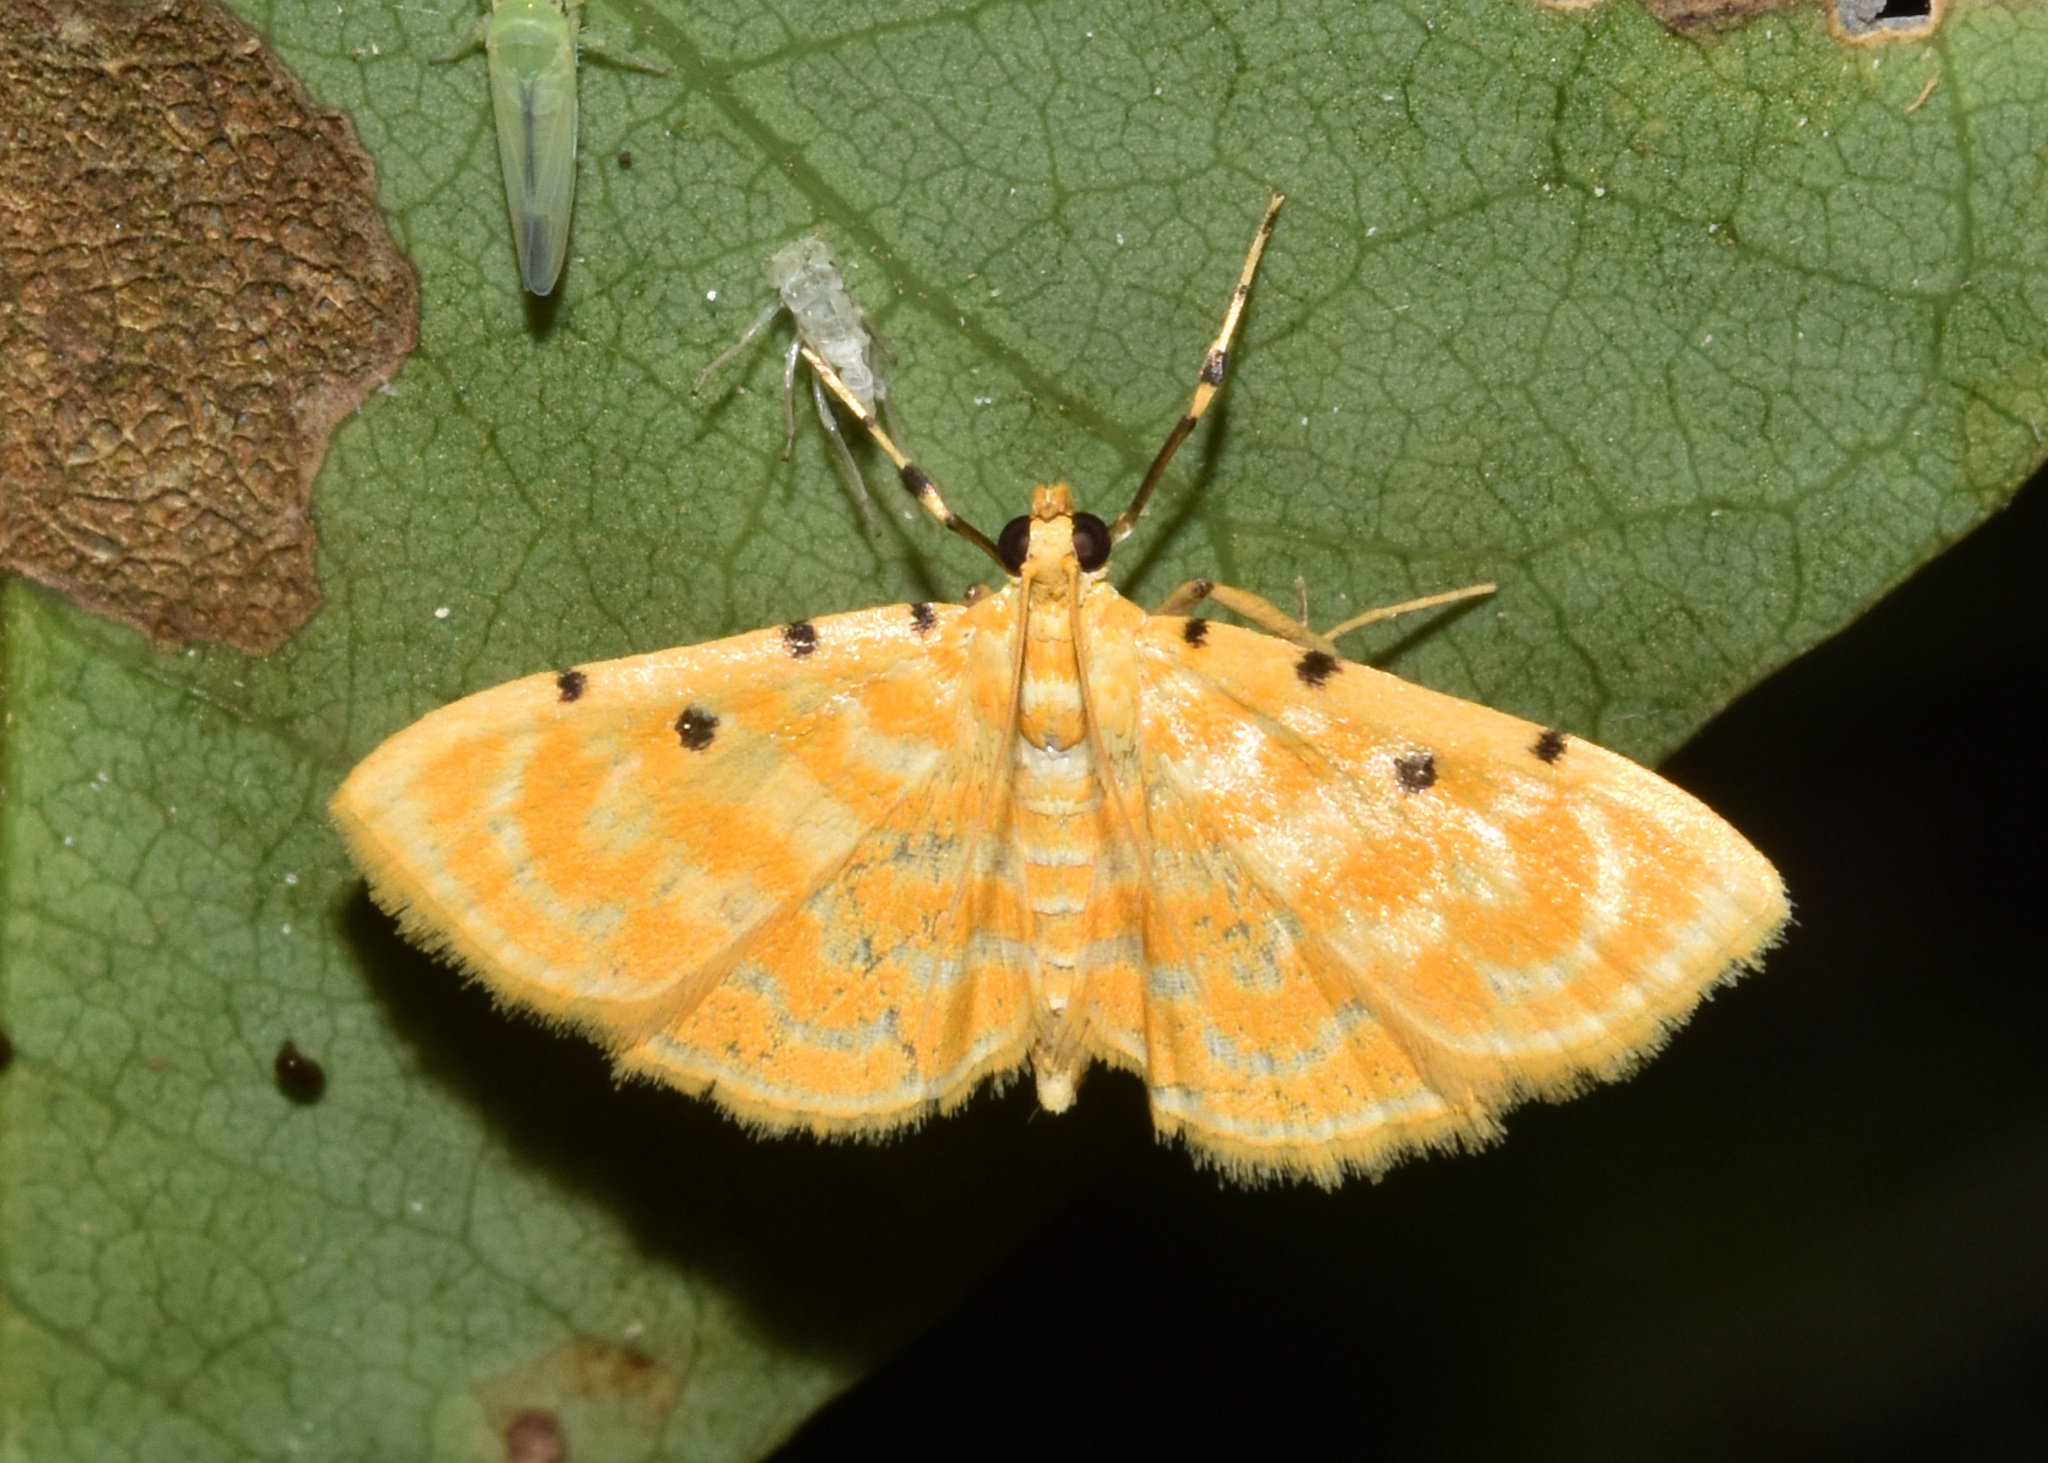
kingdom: Animalia
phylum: Arthropoda
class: Insecta
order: Lepidoptera
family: Crambidae
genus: Notarcha
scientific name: Notarcha quaternalis
